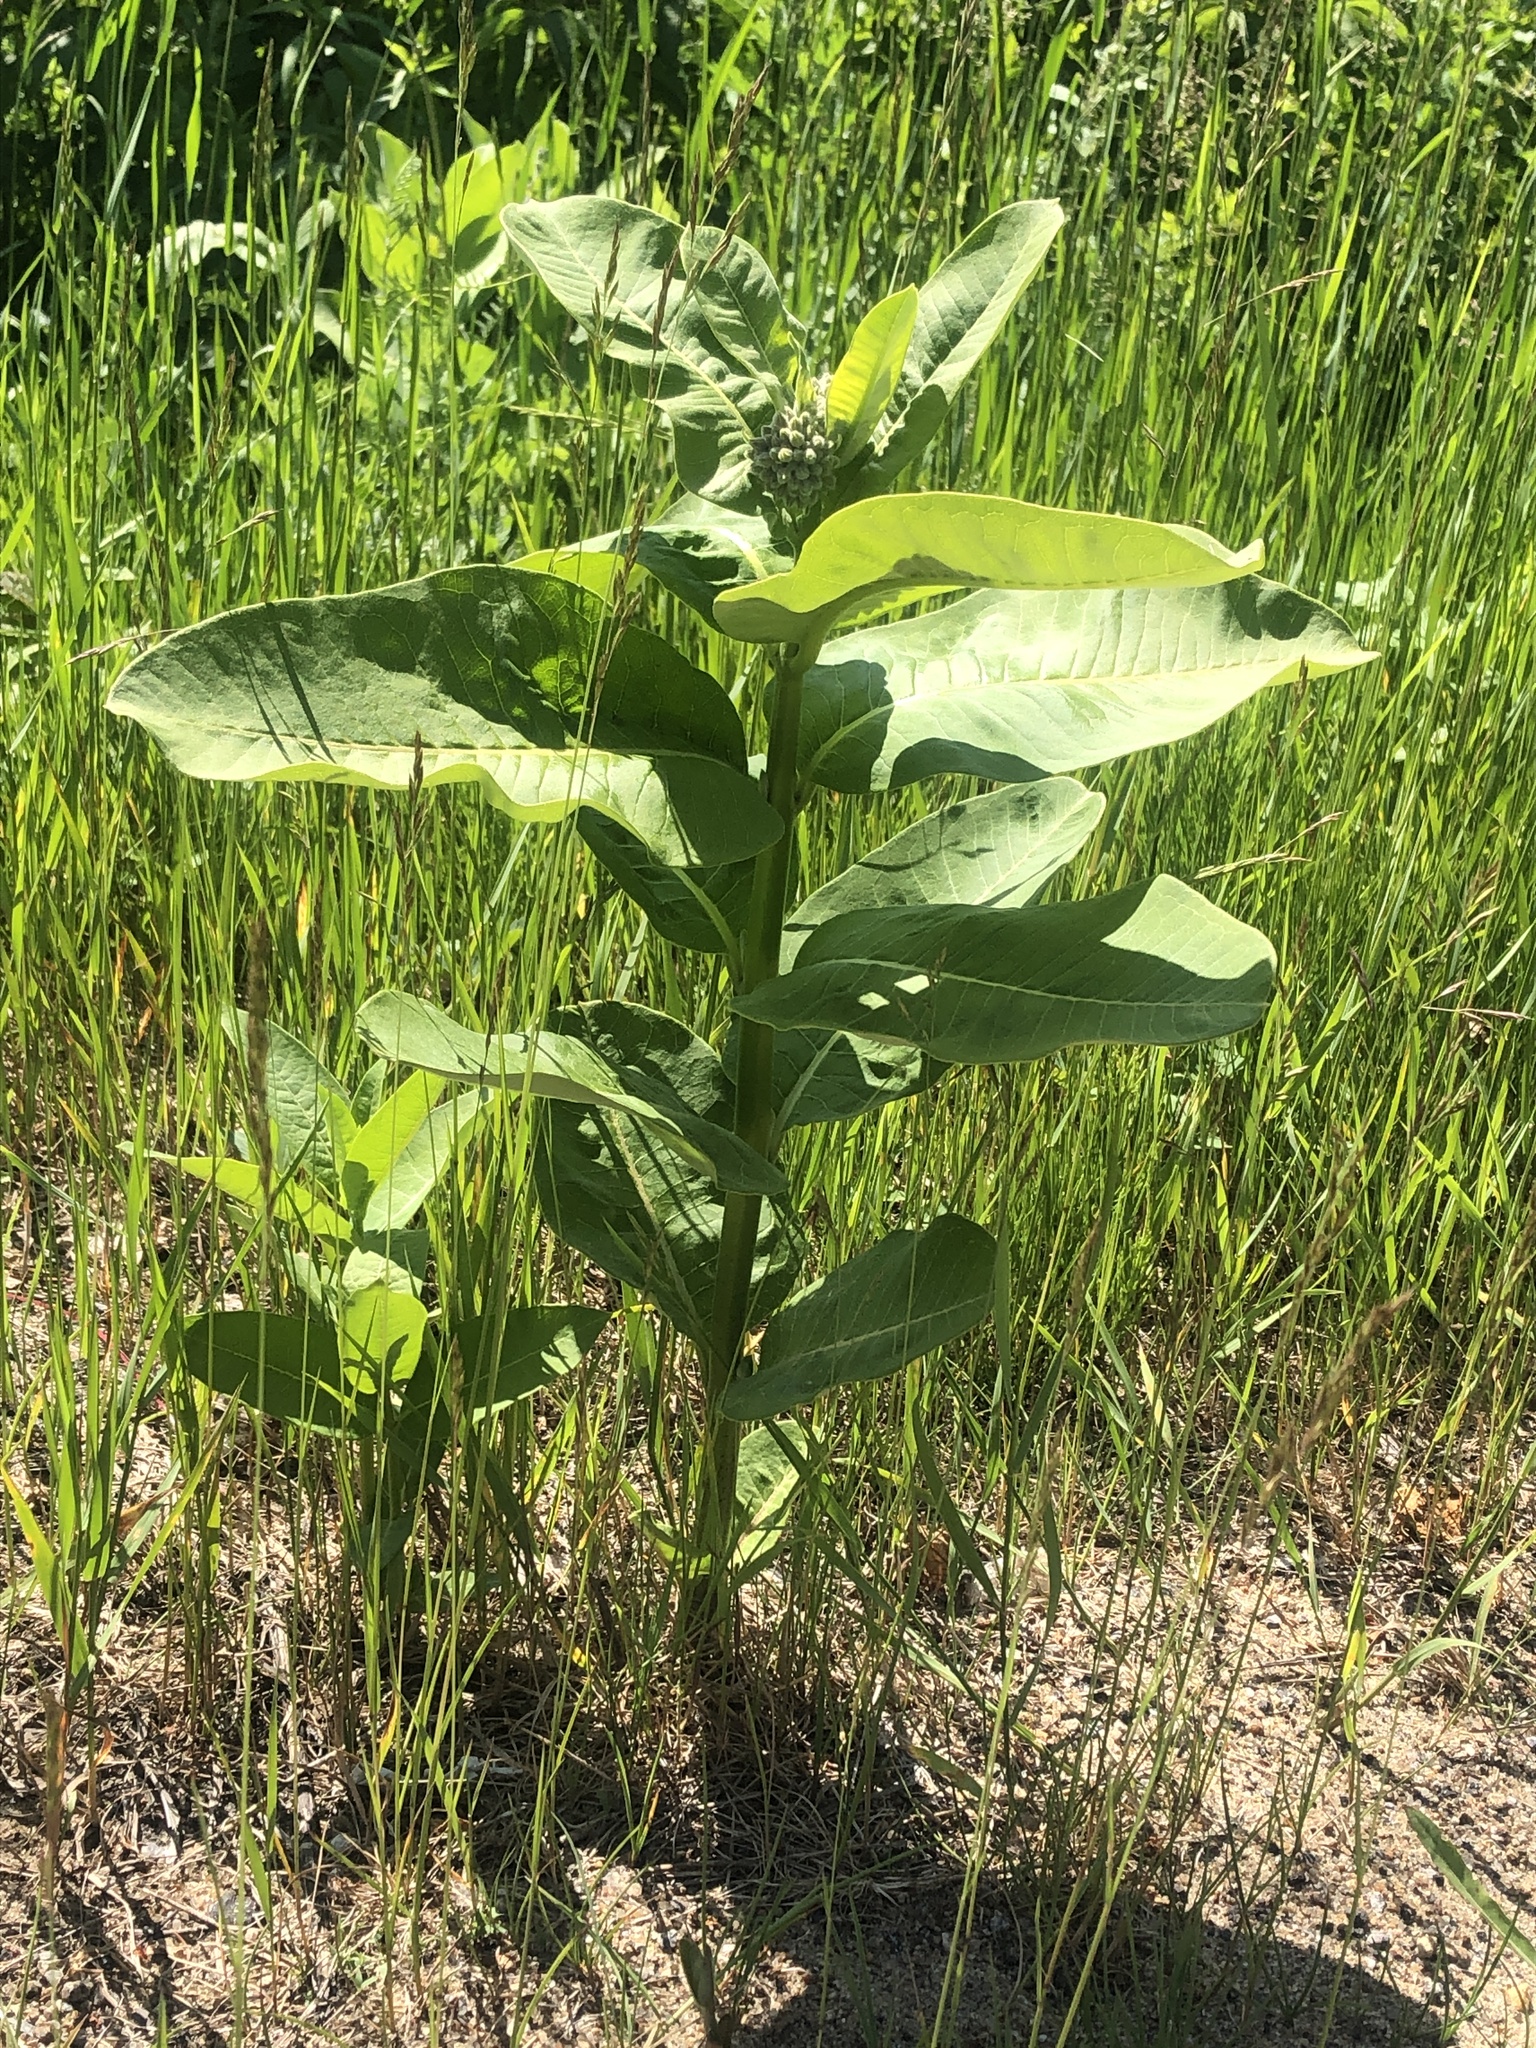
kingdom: Plantae
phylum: Tracheophyta
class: Magnoliopsida
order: Gentianales
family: Apocynaceae
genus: Asclepias
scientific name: Asclepias syriaca
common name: Common milkweed
